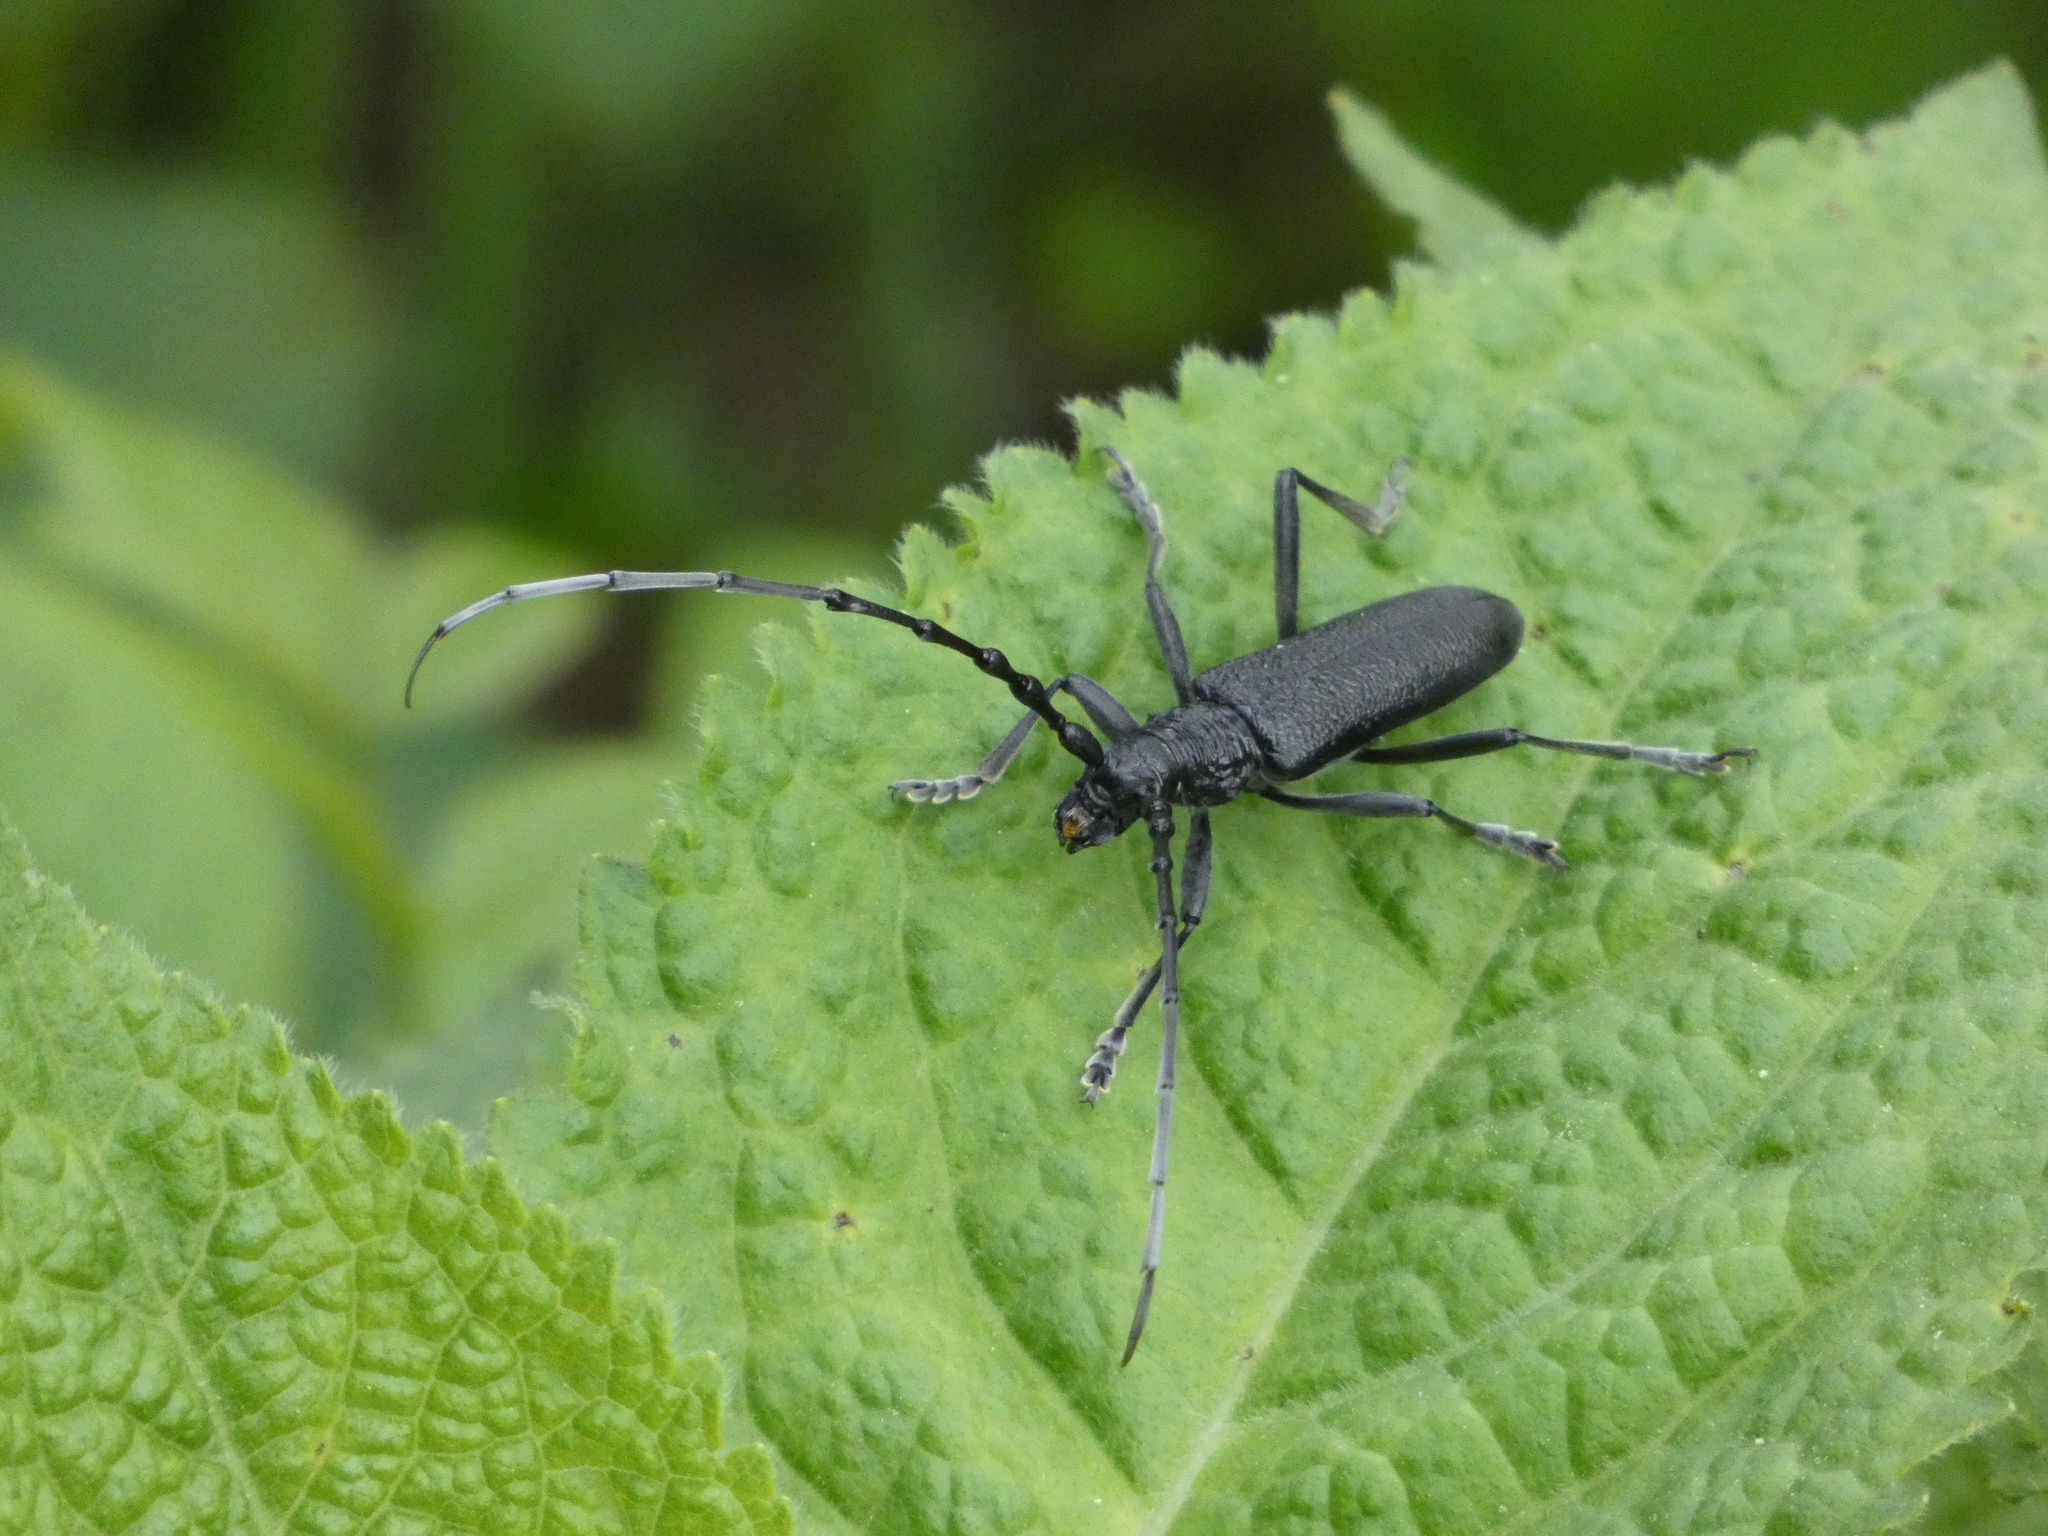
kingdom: Animalia
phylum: Arthropoda
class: Insecta
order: Coleoptera
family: Cerambycidae
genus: Cerambyx
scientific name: Cerambyx scopolii
